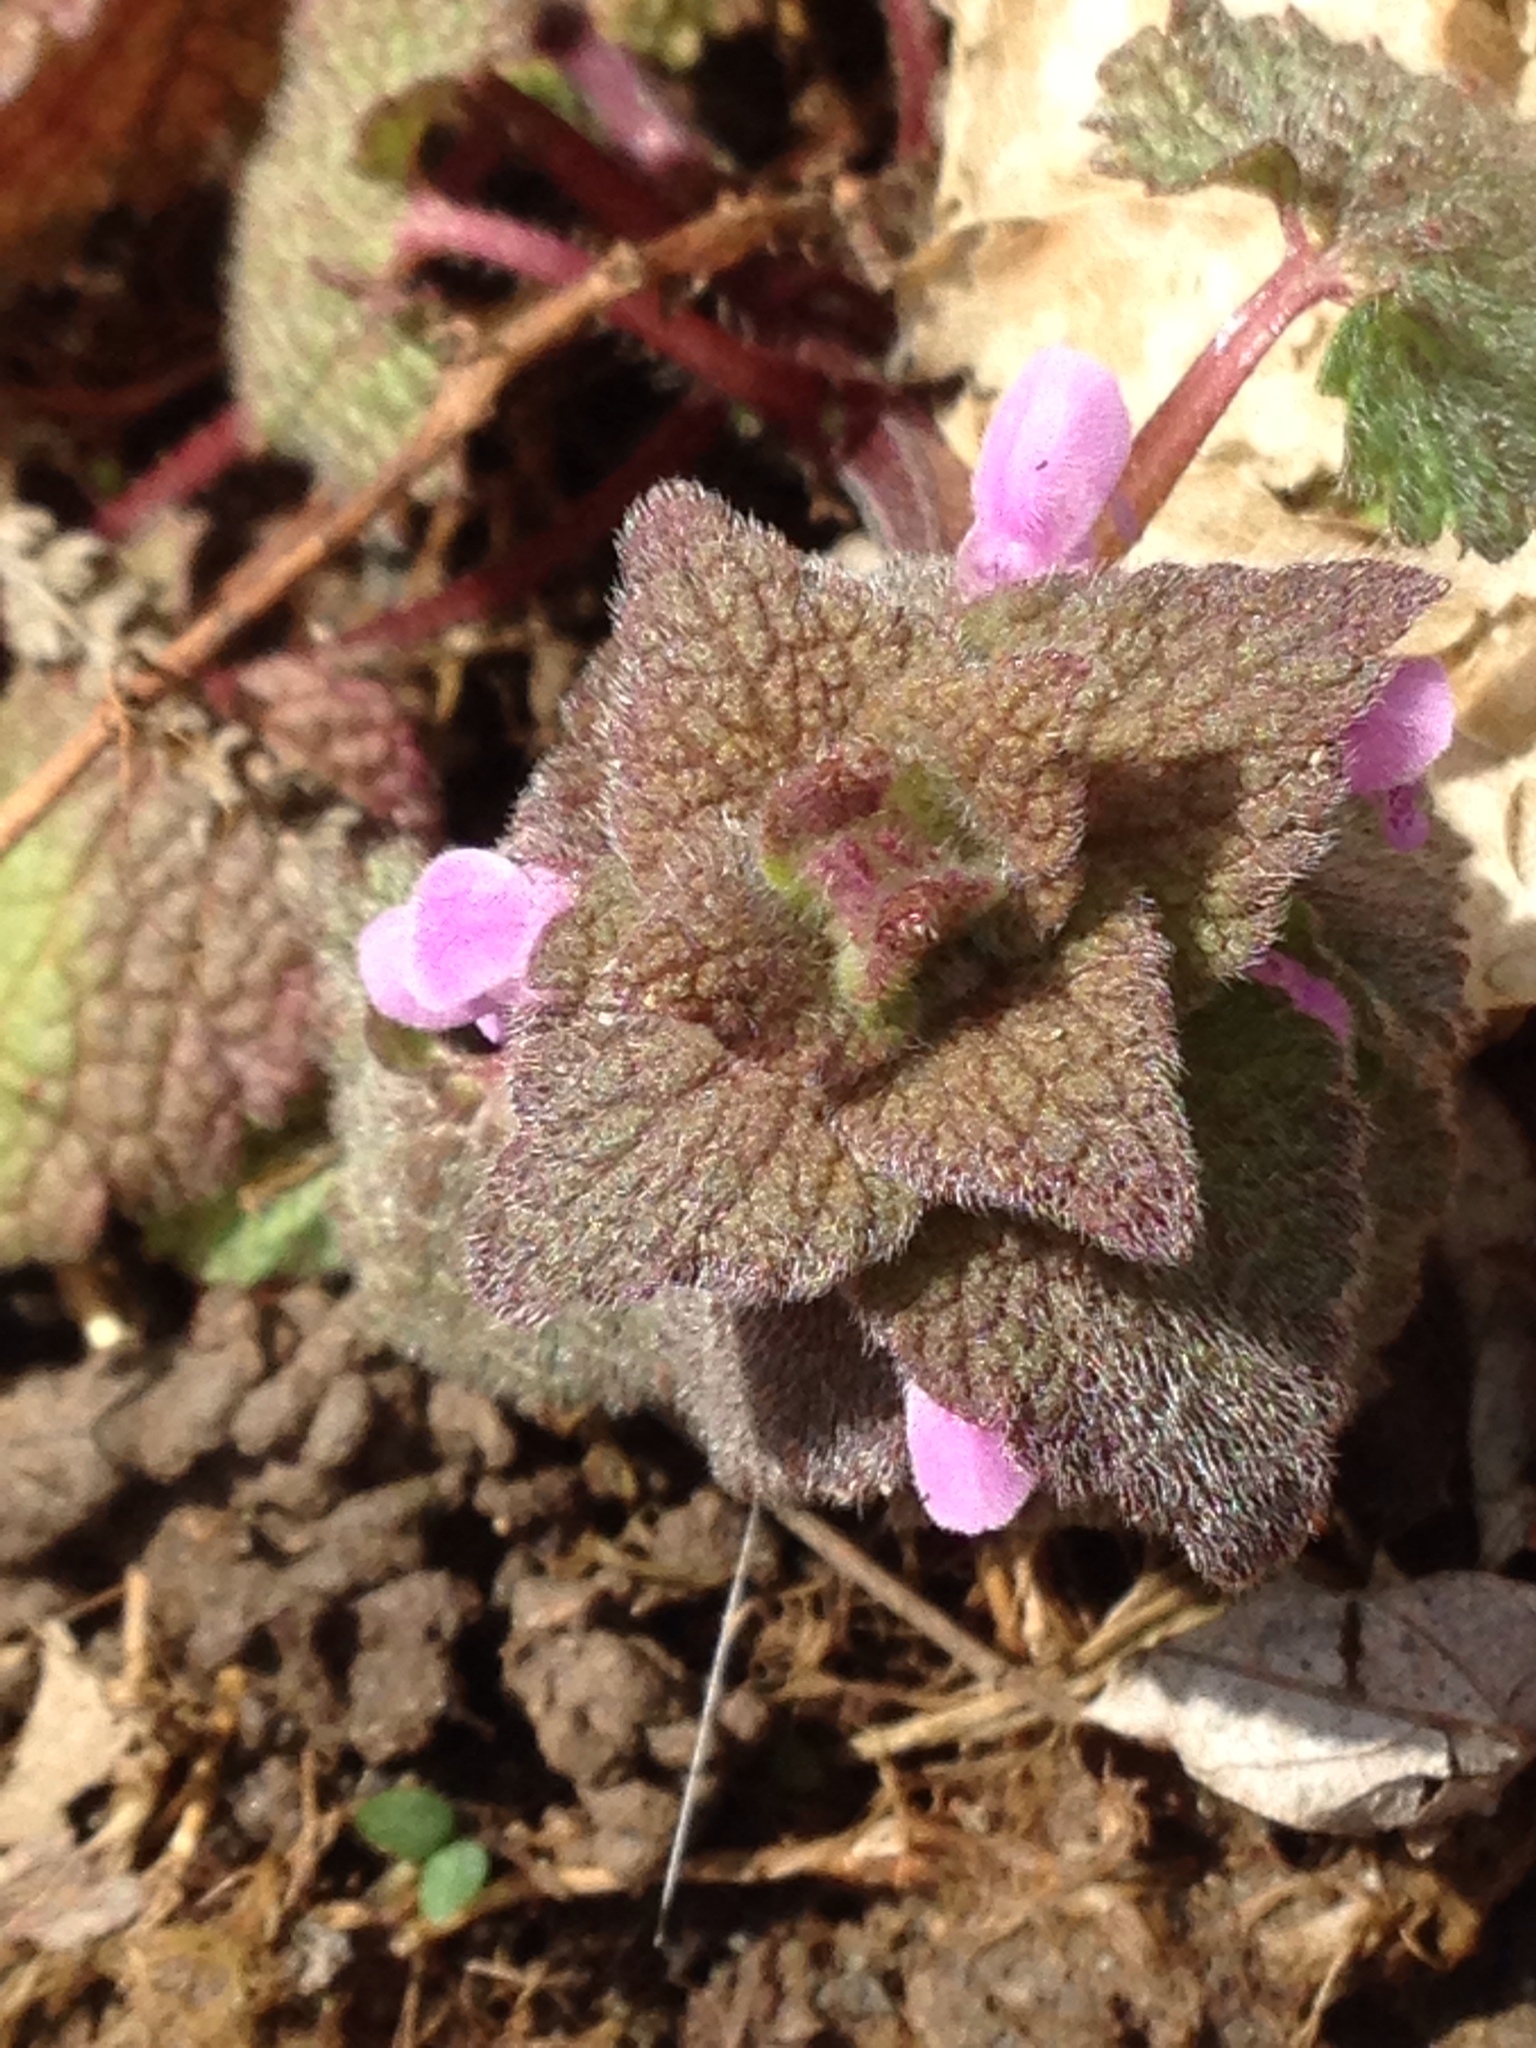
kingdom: Plantae
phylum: Tracheophyta
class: Magnoliopsida
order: Lamiales
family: Lamiaceae
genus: Lamium
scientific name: Lamium purpureum
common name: Red dead-nettle
